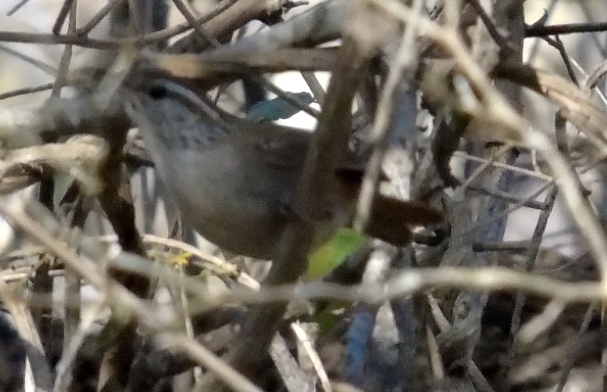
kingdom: Animalia
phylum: Chordata
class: Aves
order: Passeriformes
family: Troglodytidae
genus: Thryophilus
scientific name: Thryophilus sinaloa
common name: Sinaloa wren
